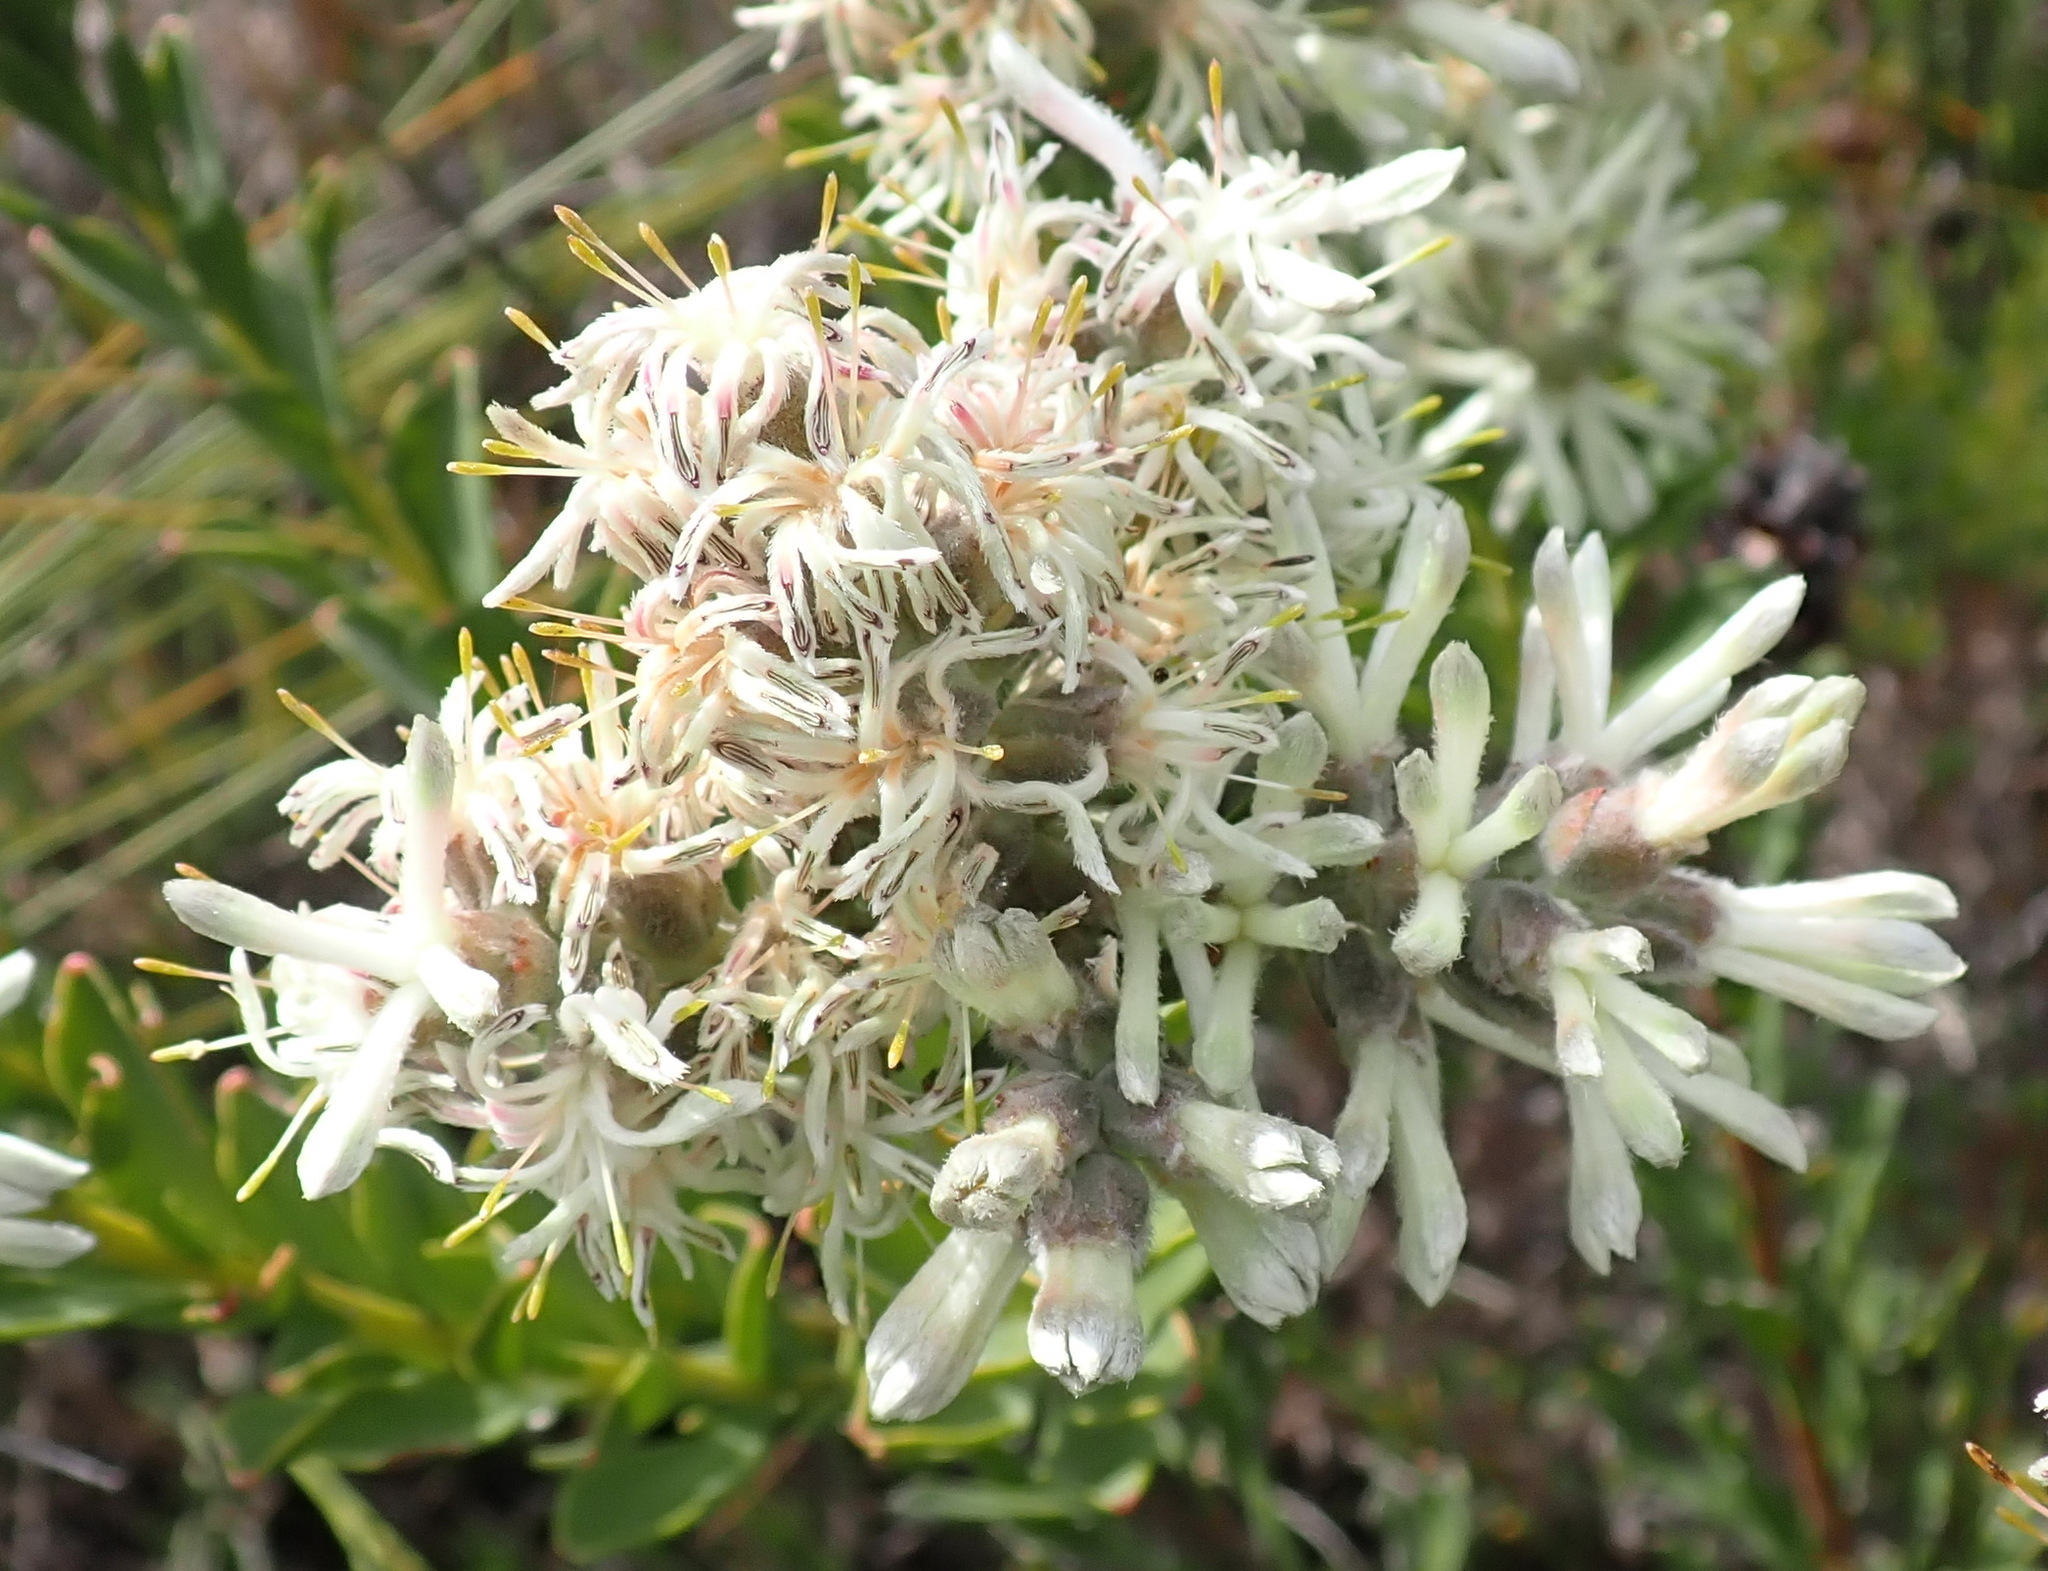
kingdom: Plantae
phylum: Tracheophyta
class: Magnoliopsida
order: Proteales
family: Proteaceae
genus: Paranomus
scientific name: Paranomus dregei
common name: Scented sceptre
